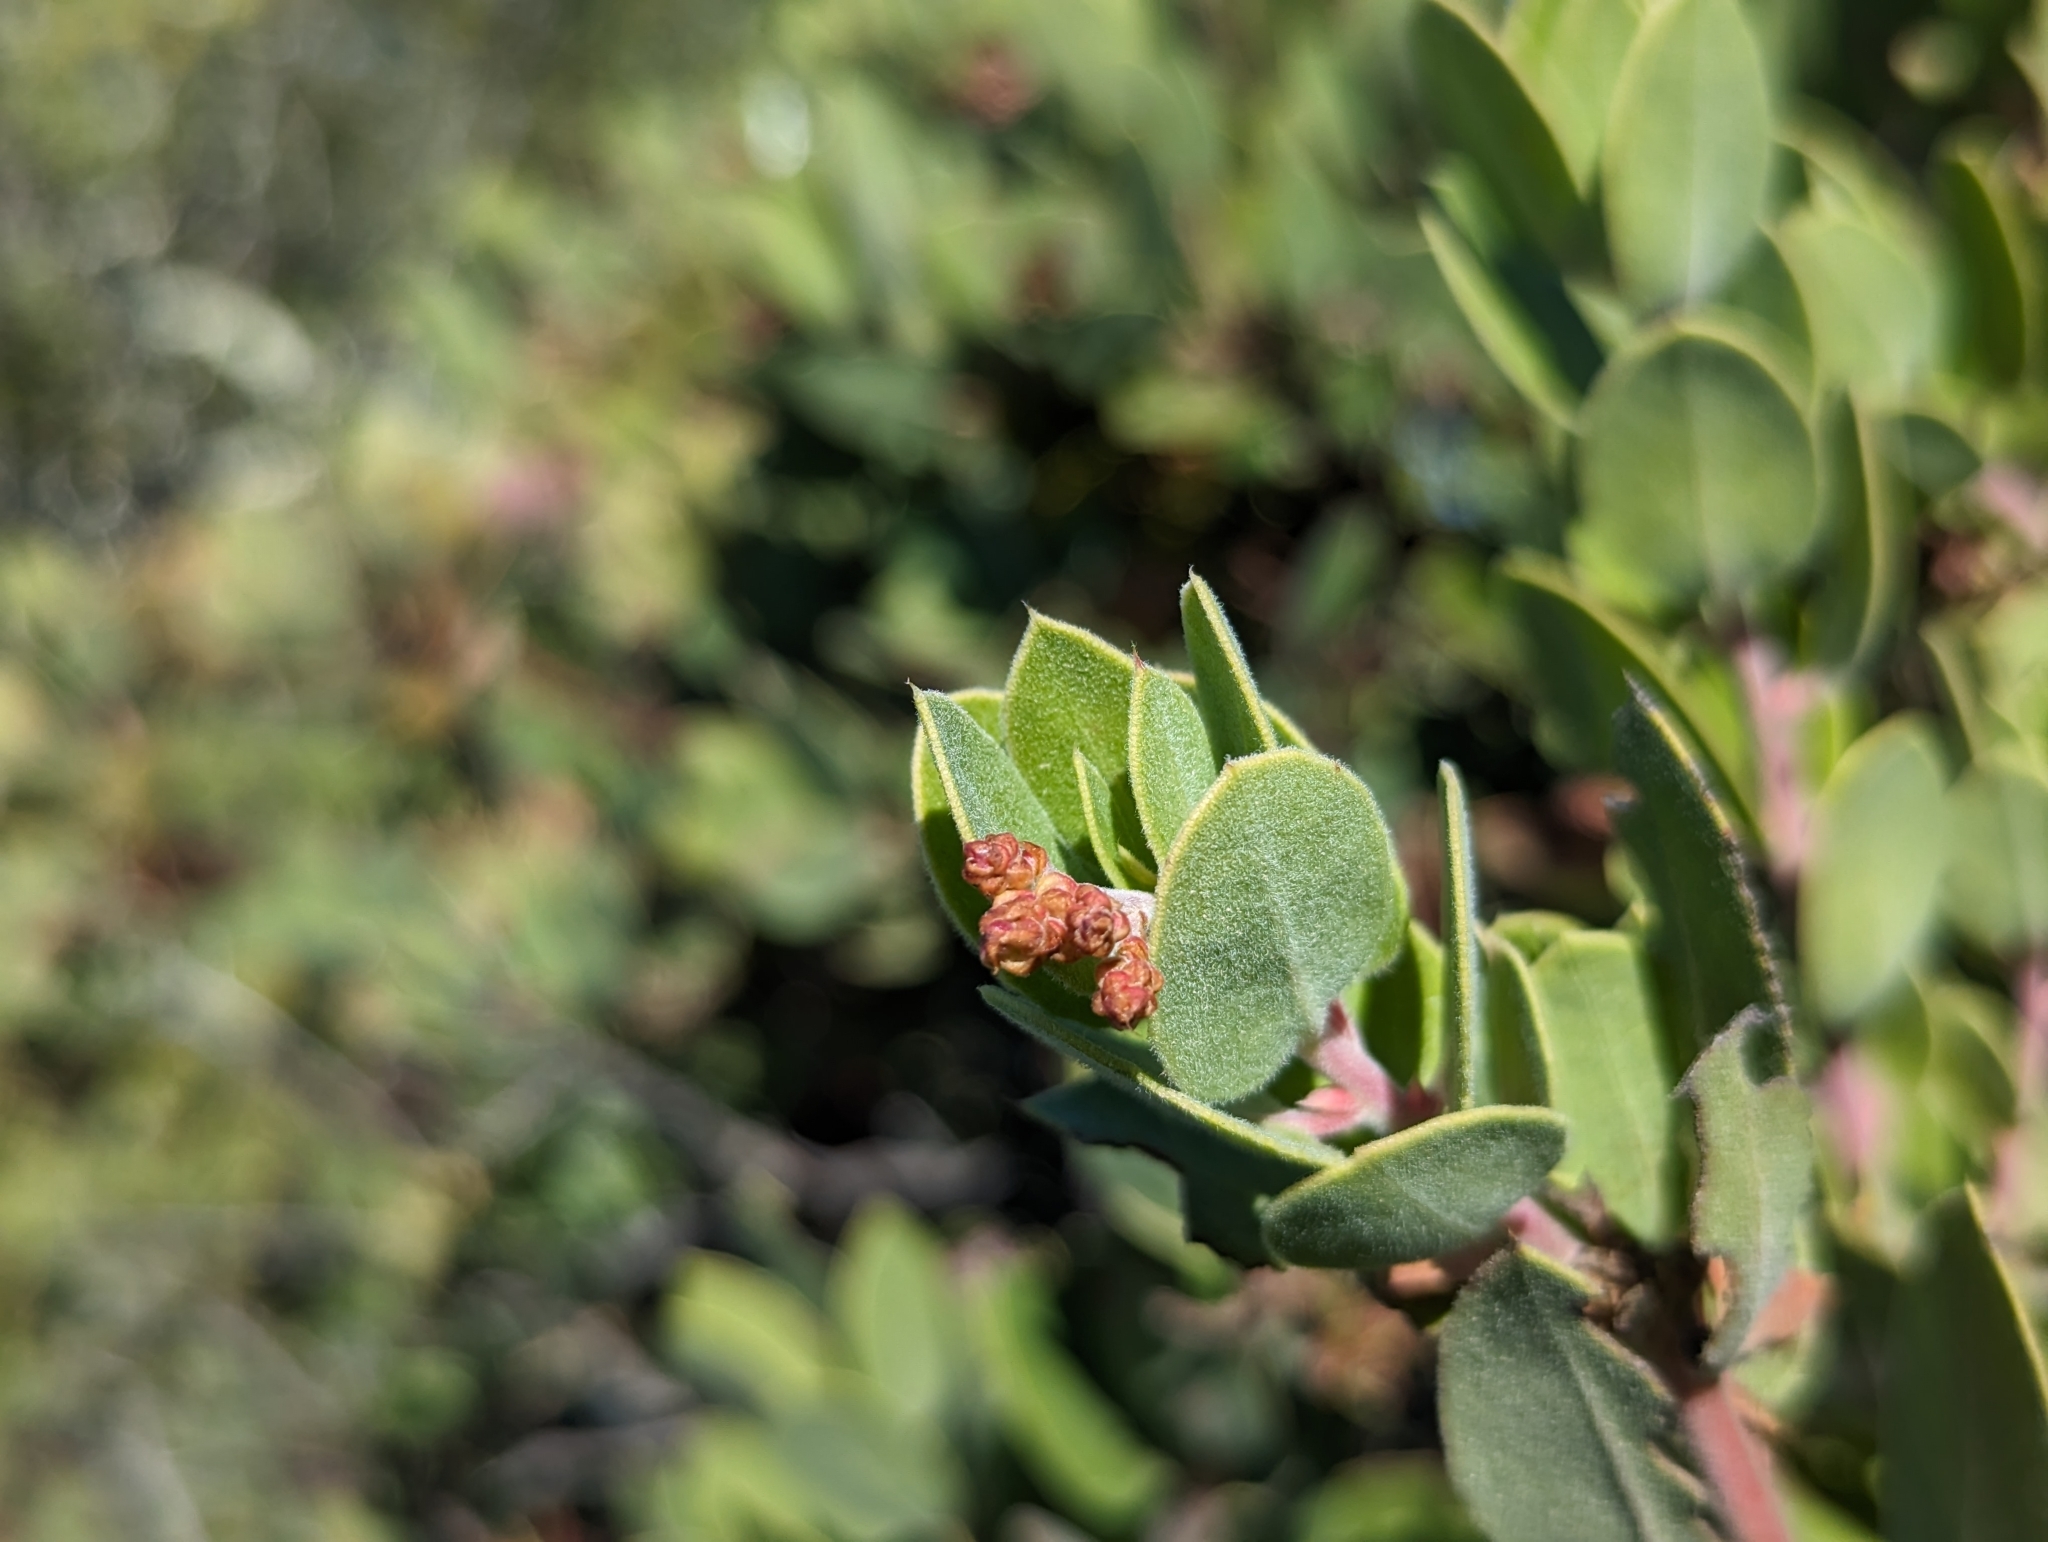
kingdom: Plantae
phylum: Tracheophyta
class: Magnoliopsida
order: Ericales
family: Ericaceae
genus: Arctostaphylos
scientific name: Arctostaphylos crustacea
